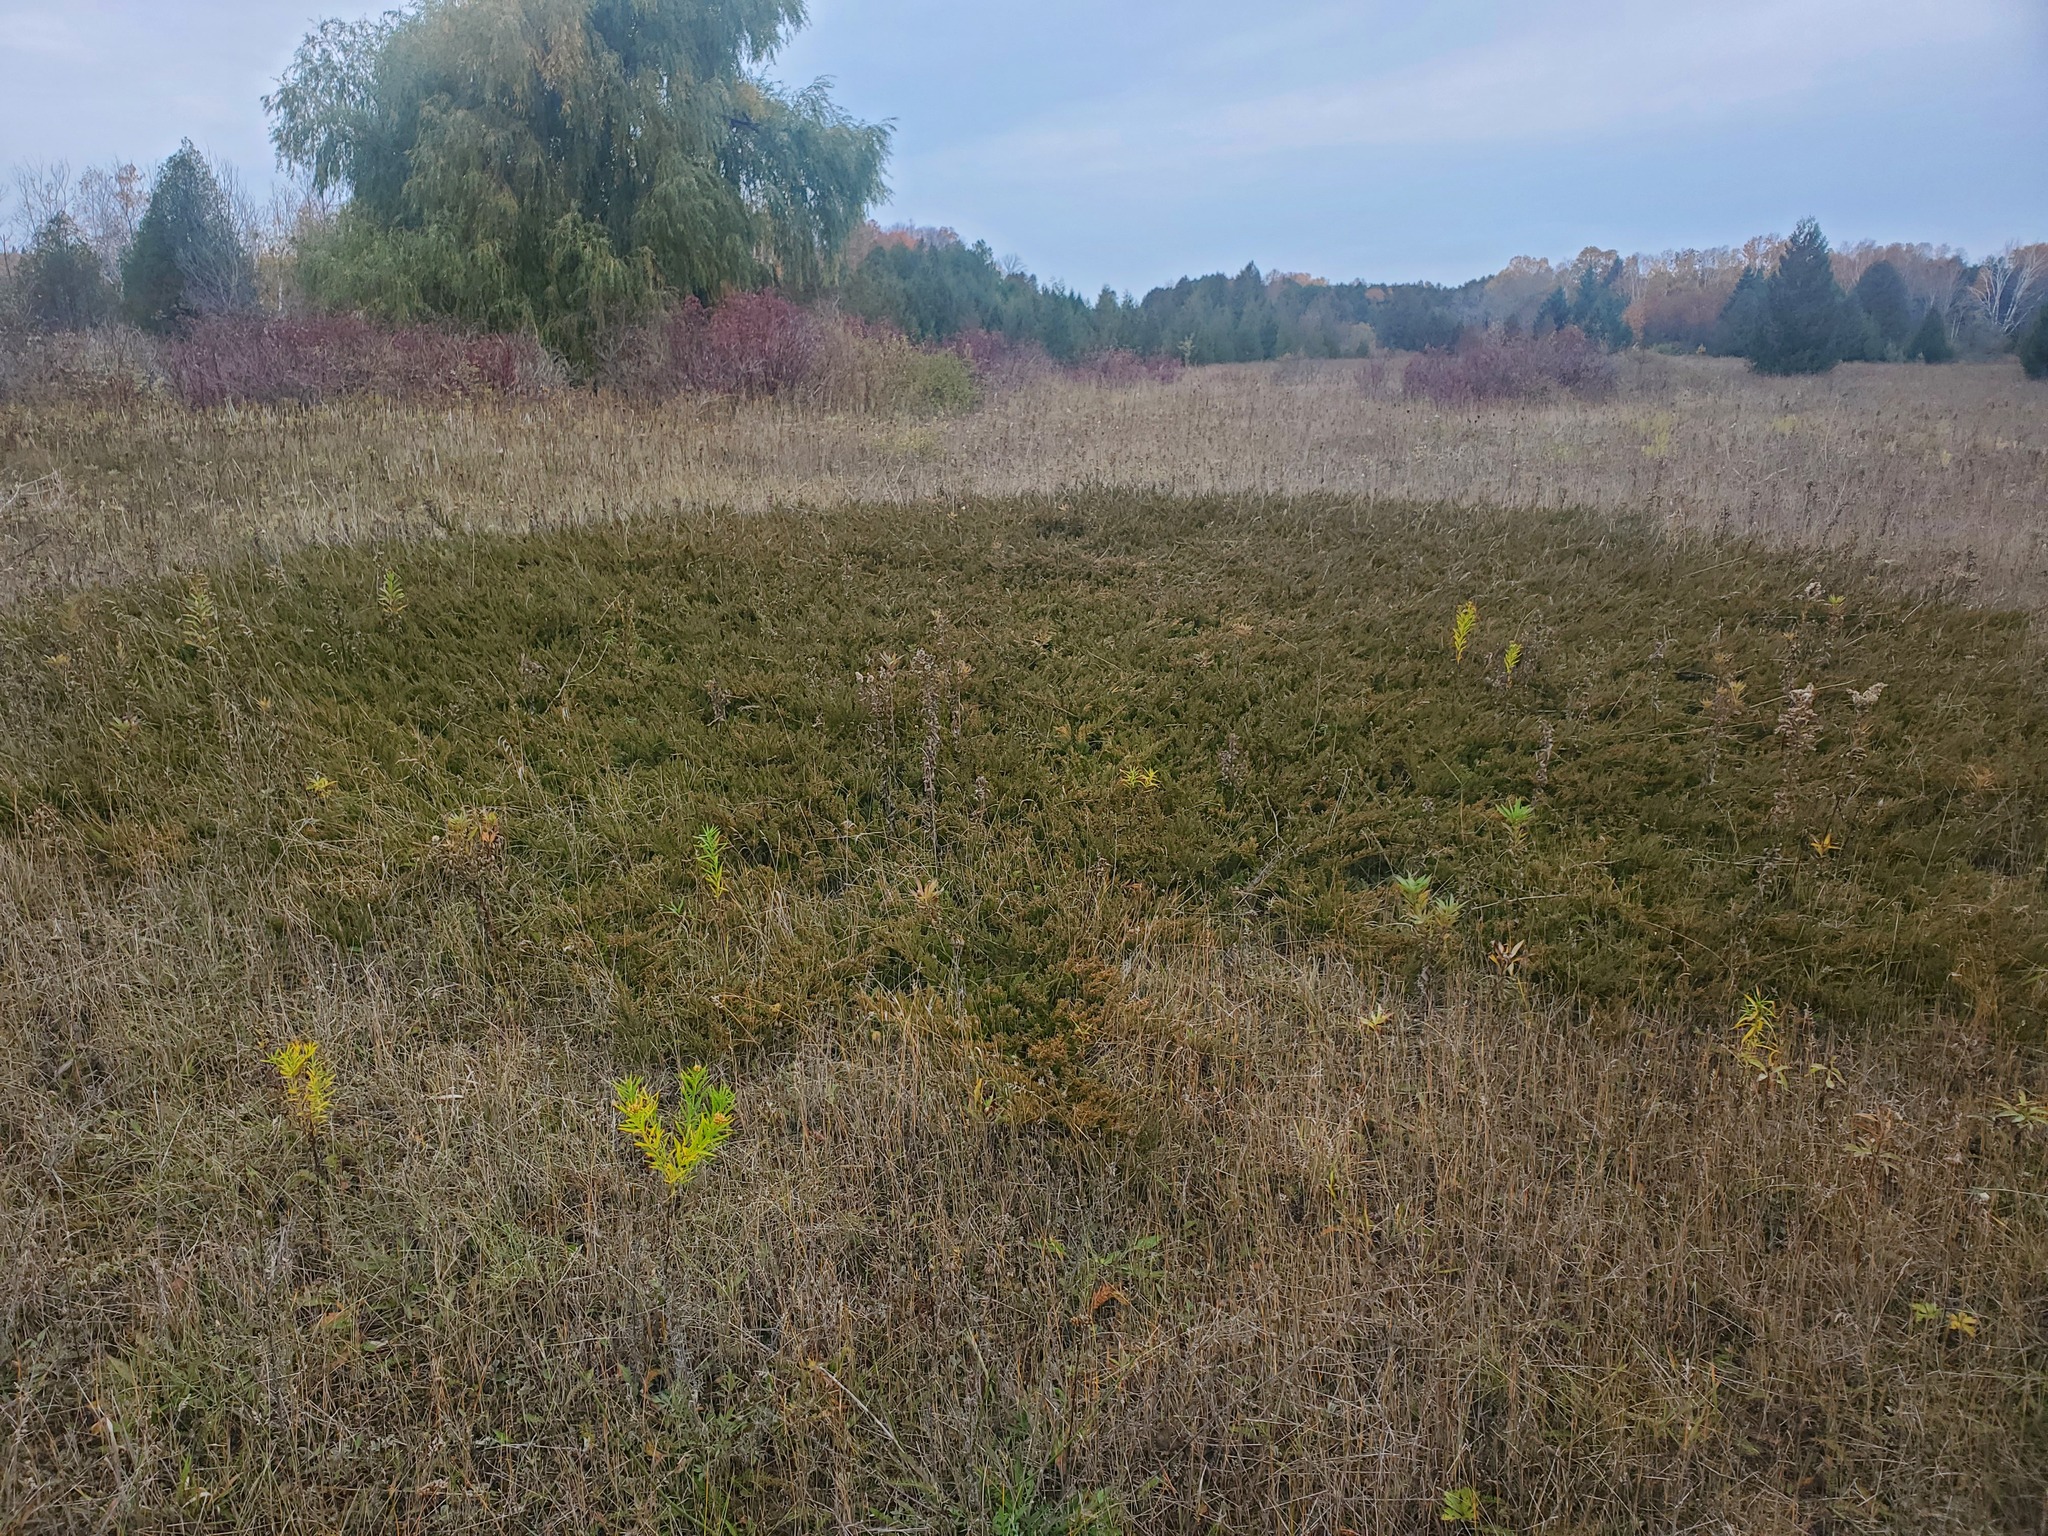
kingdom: Plantae
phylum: Tracheophyta
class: Pinopsida
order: Pinales
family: Cupressaceae
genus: Juniperus
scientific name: Juniperus horizontalis
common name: Creeping juniper
